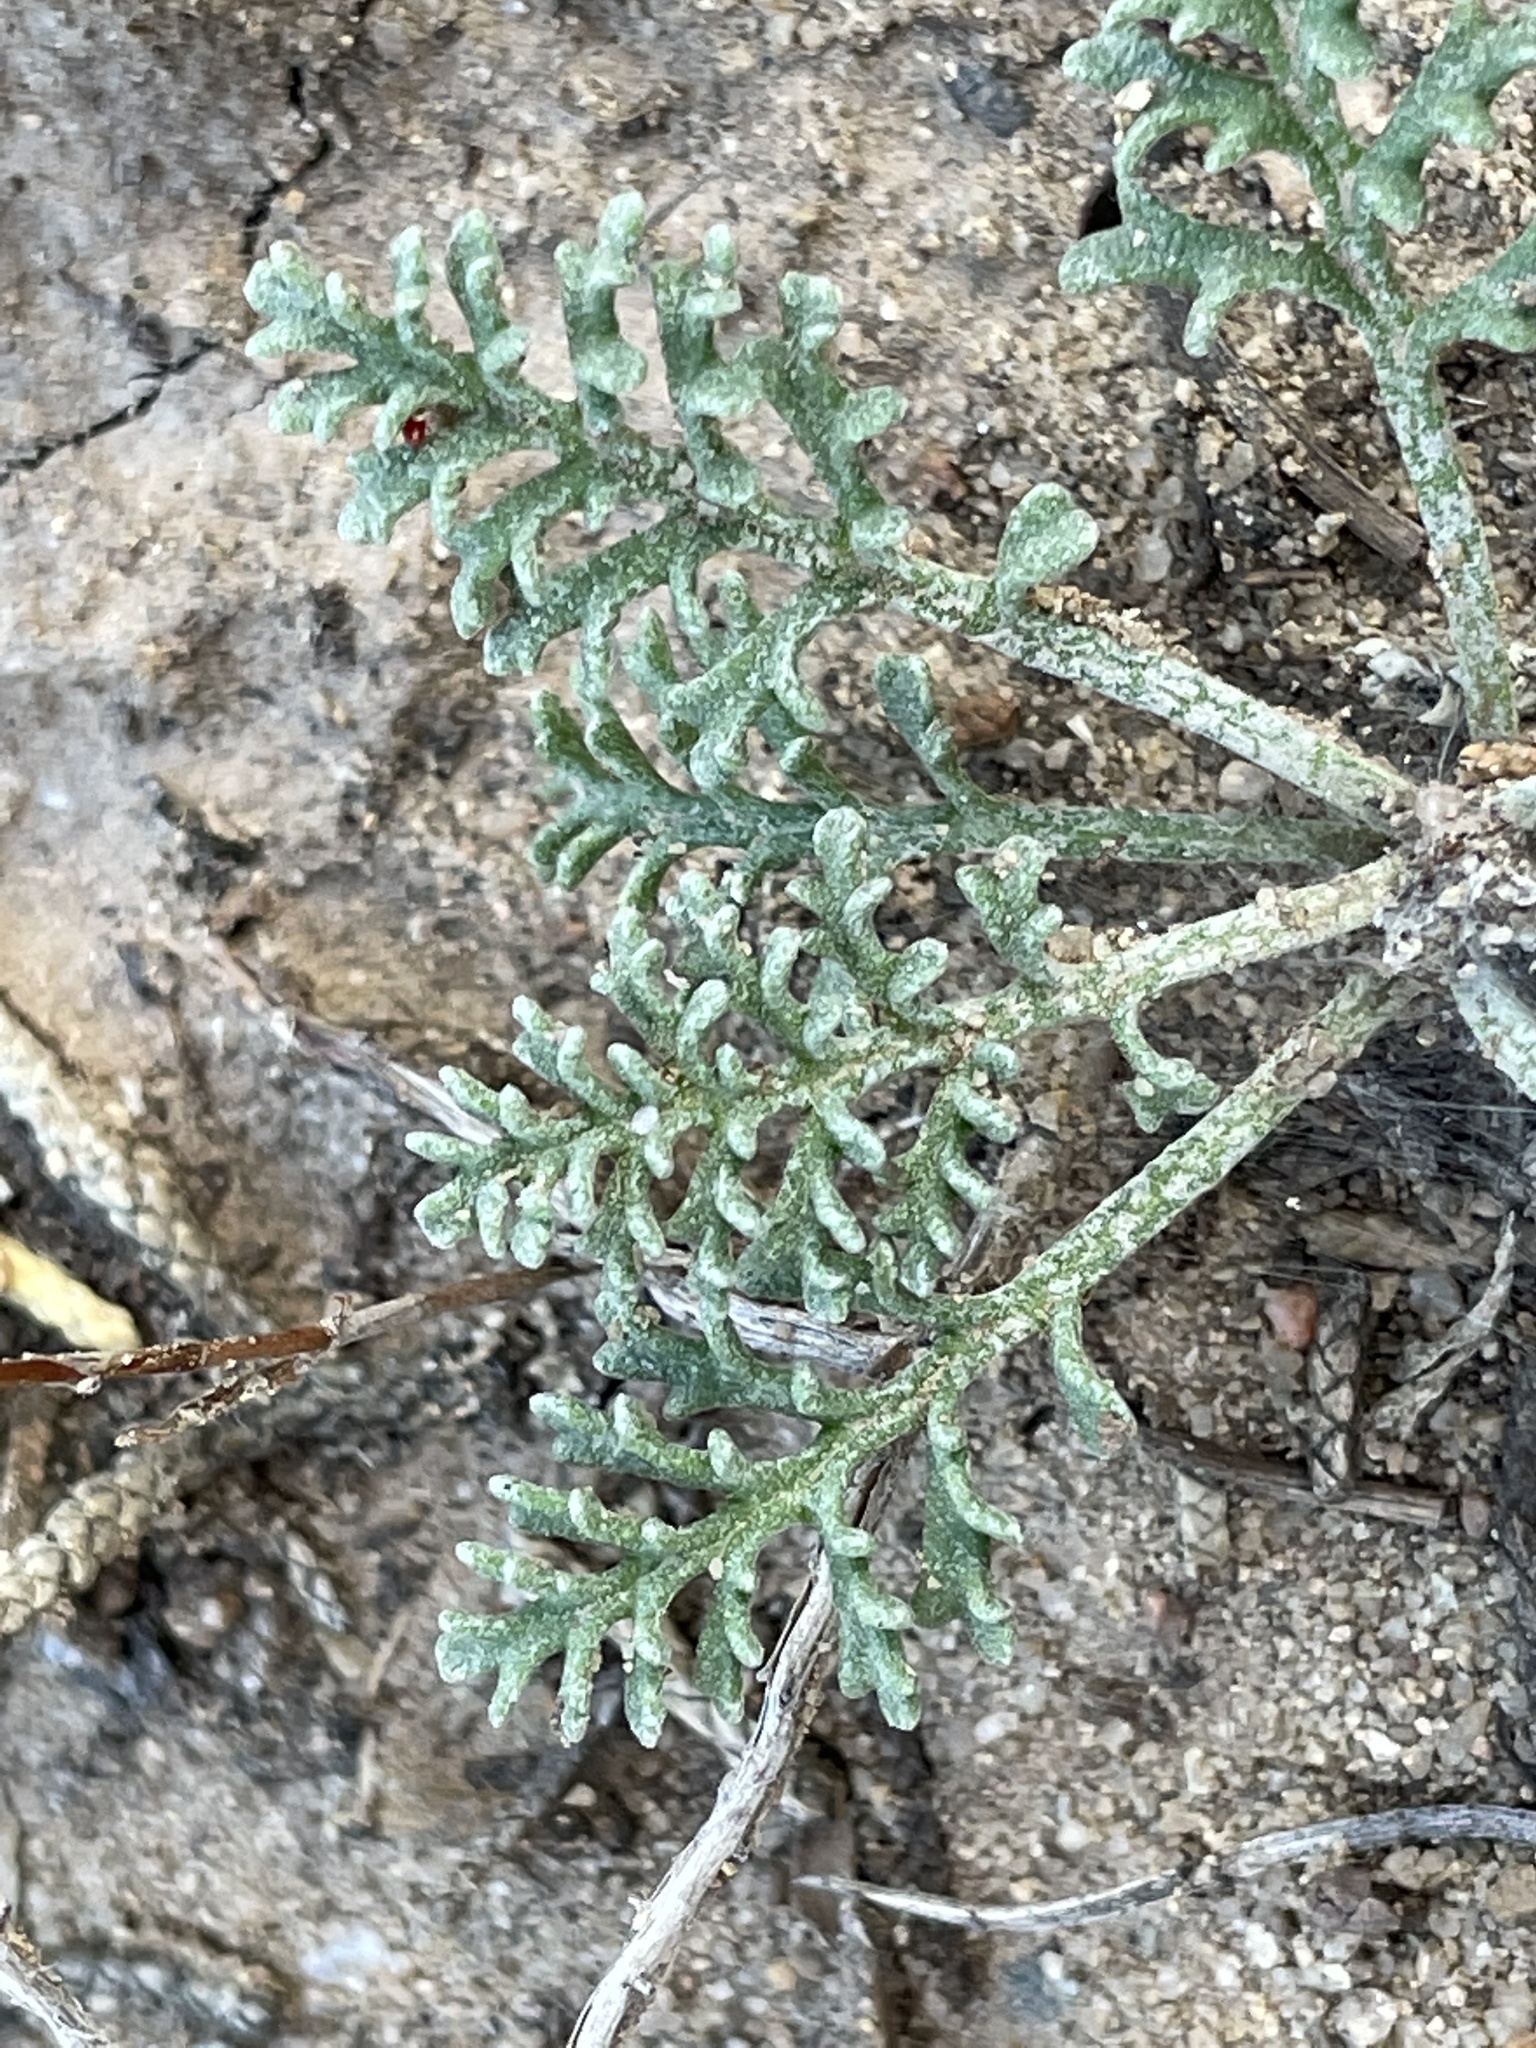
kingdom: Plantae
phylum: Tracheophyta
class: Magnoliopsida
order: Asterales
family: Asteraceae
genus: Hymenopappus
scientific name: Hymenopappus filifolius
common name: Columbia cutleaf
